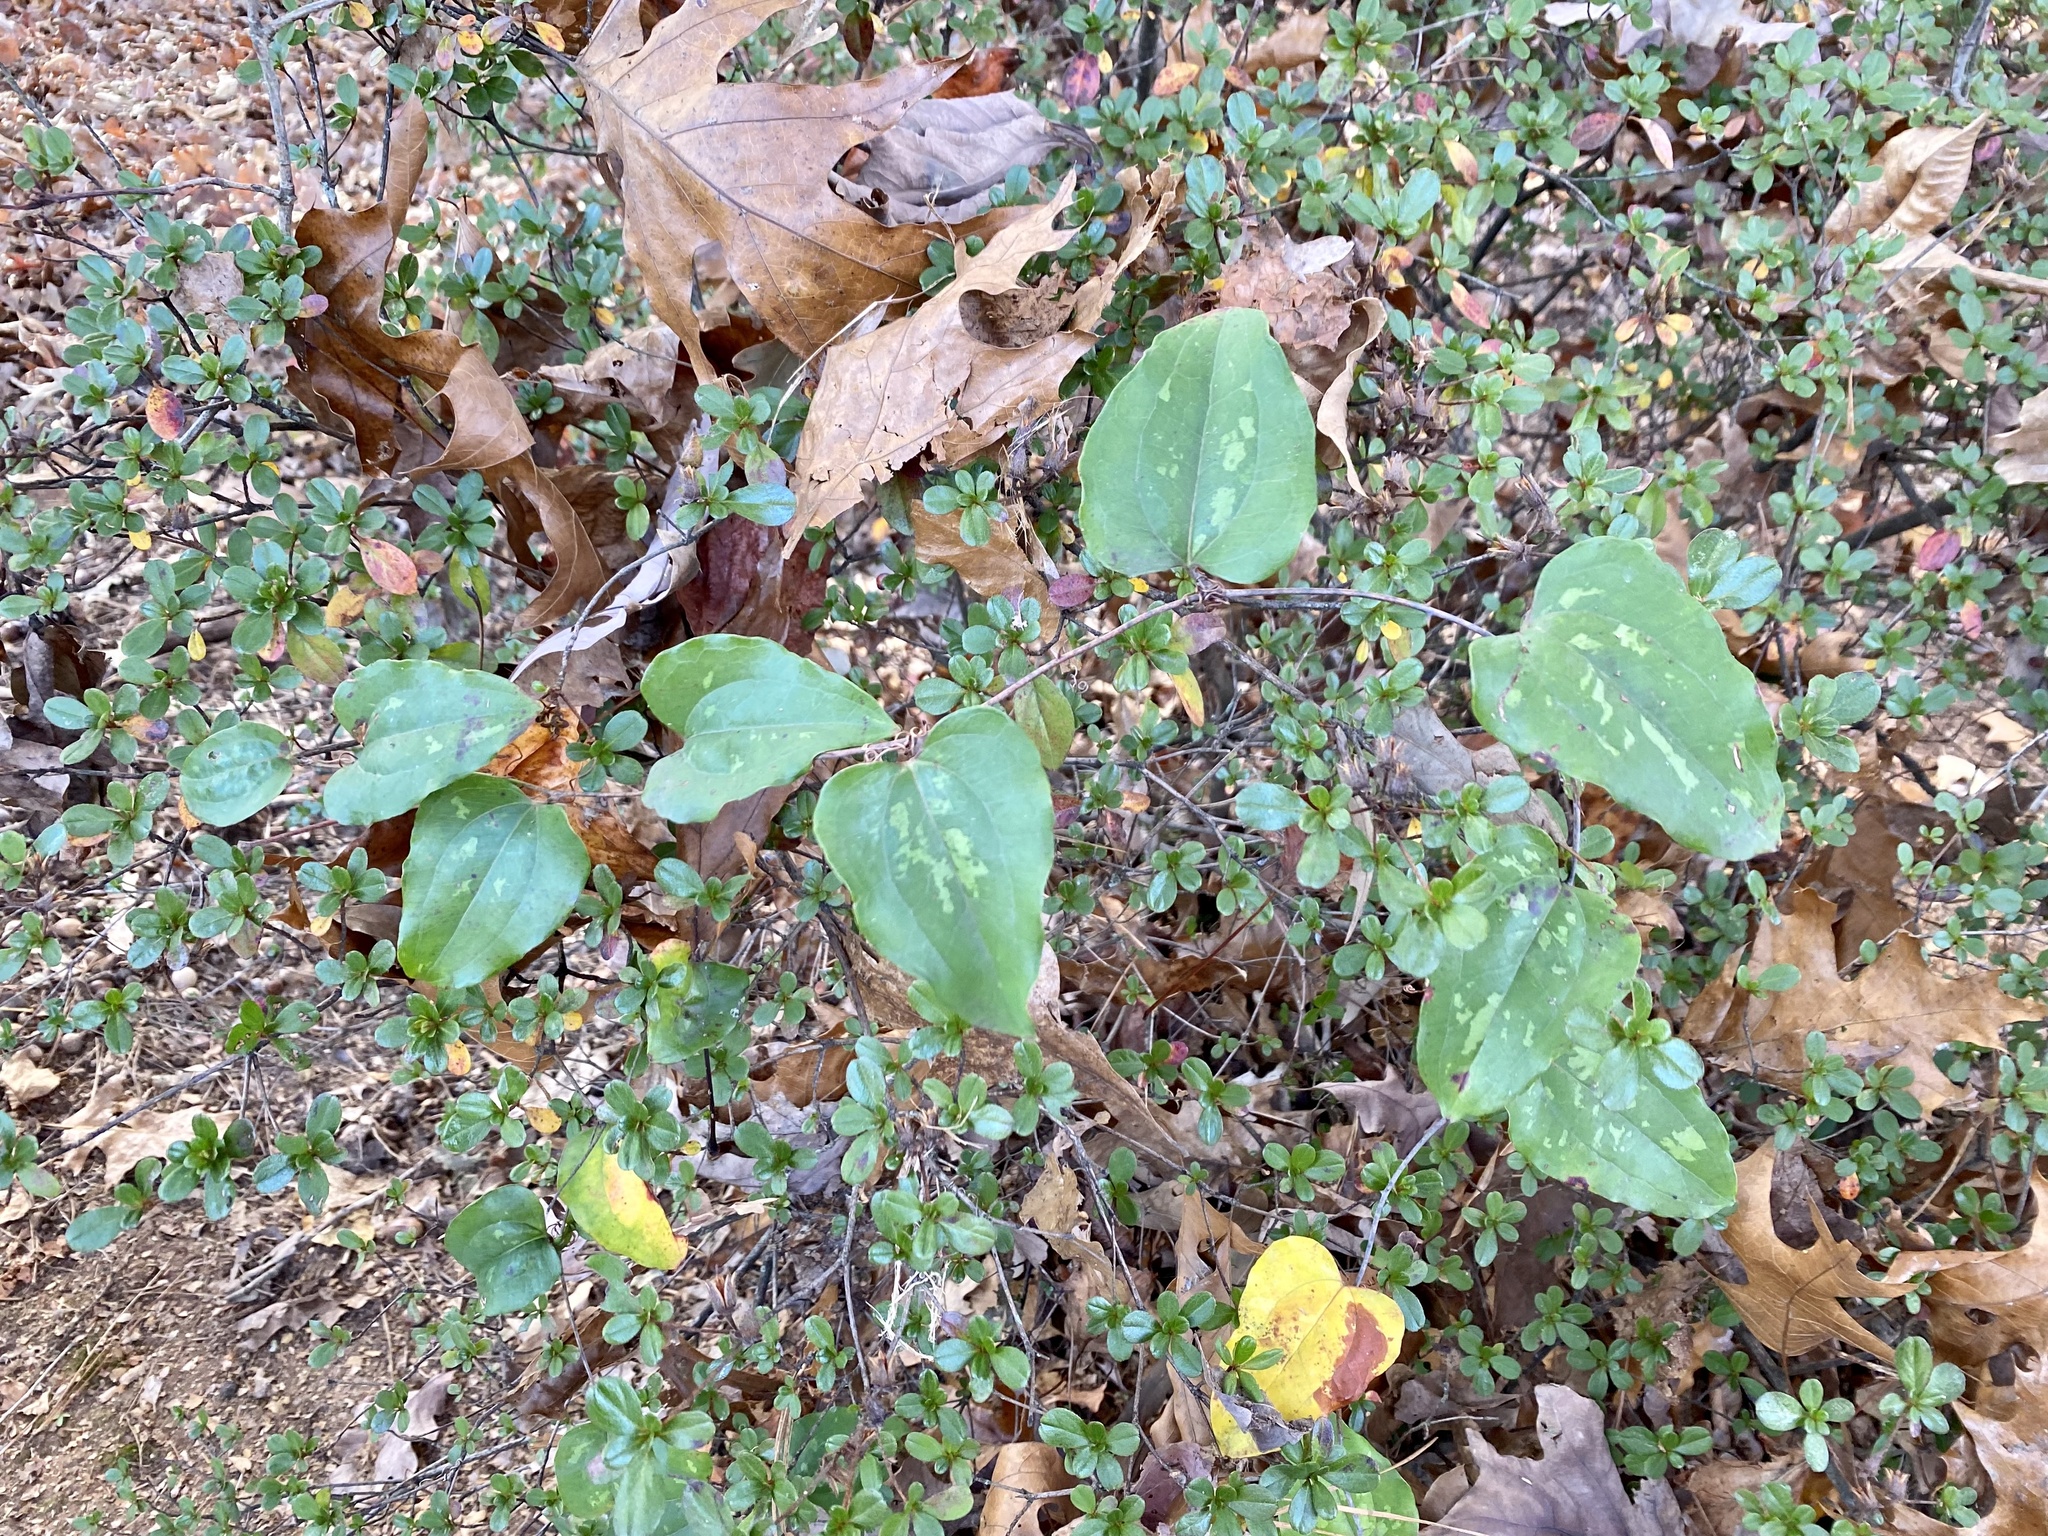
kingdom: Plantae
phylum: Tracheophyta
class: Liliopsida
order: Liliales
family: Smilacaceae
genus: Smilax
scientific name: Smilax glauca
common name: Cat greenbrier
